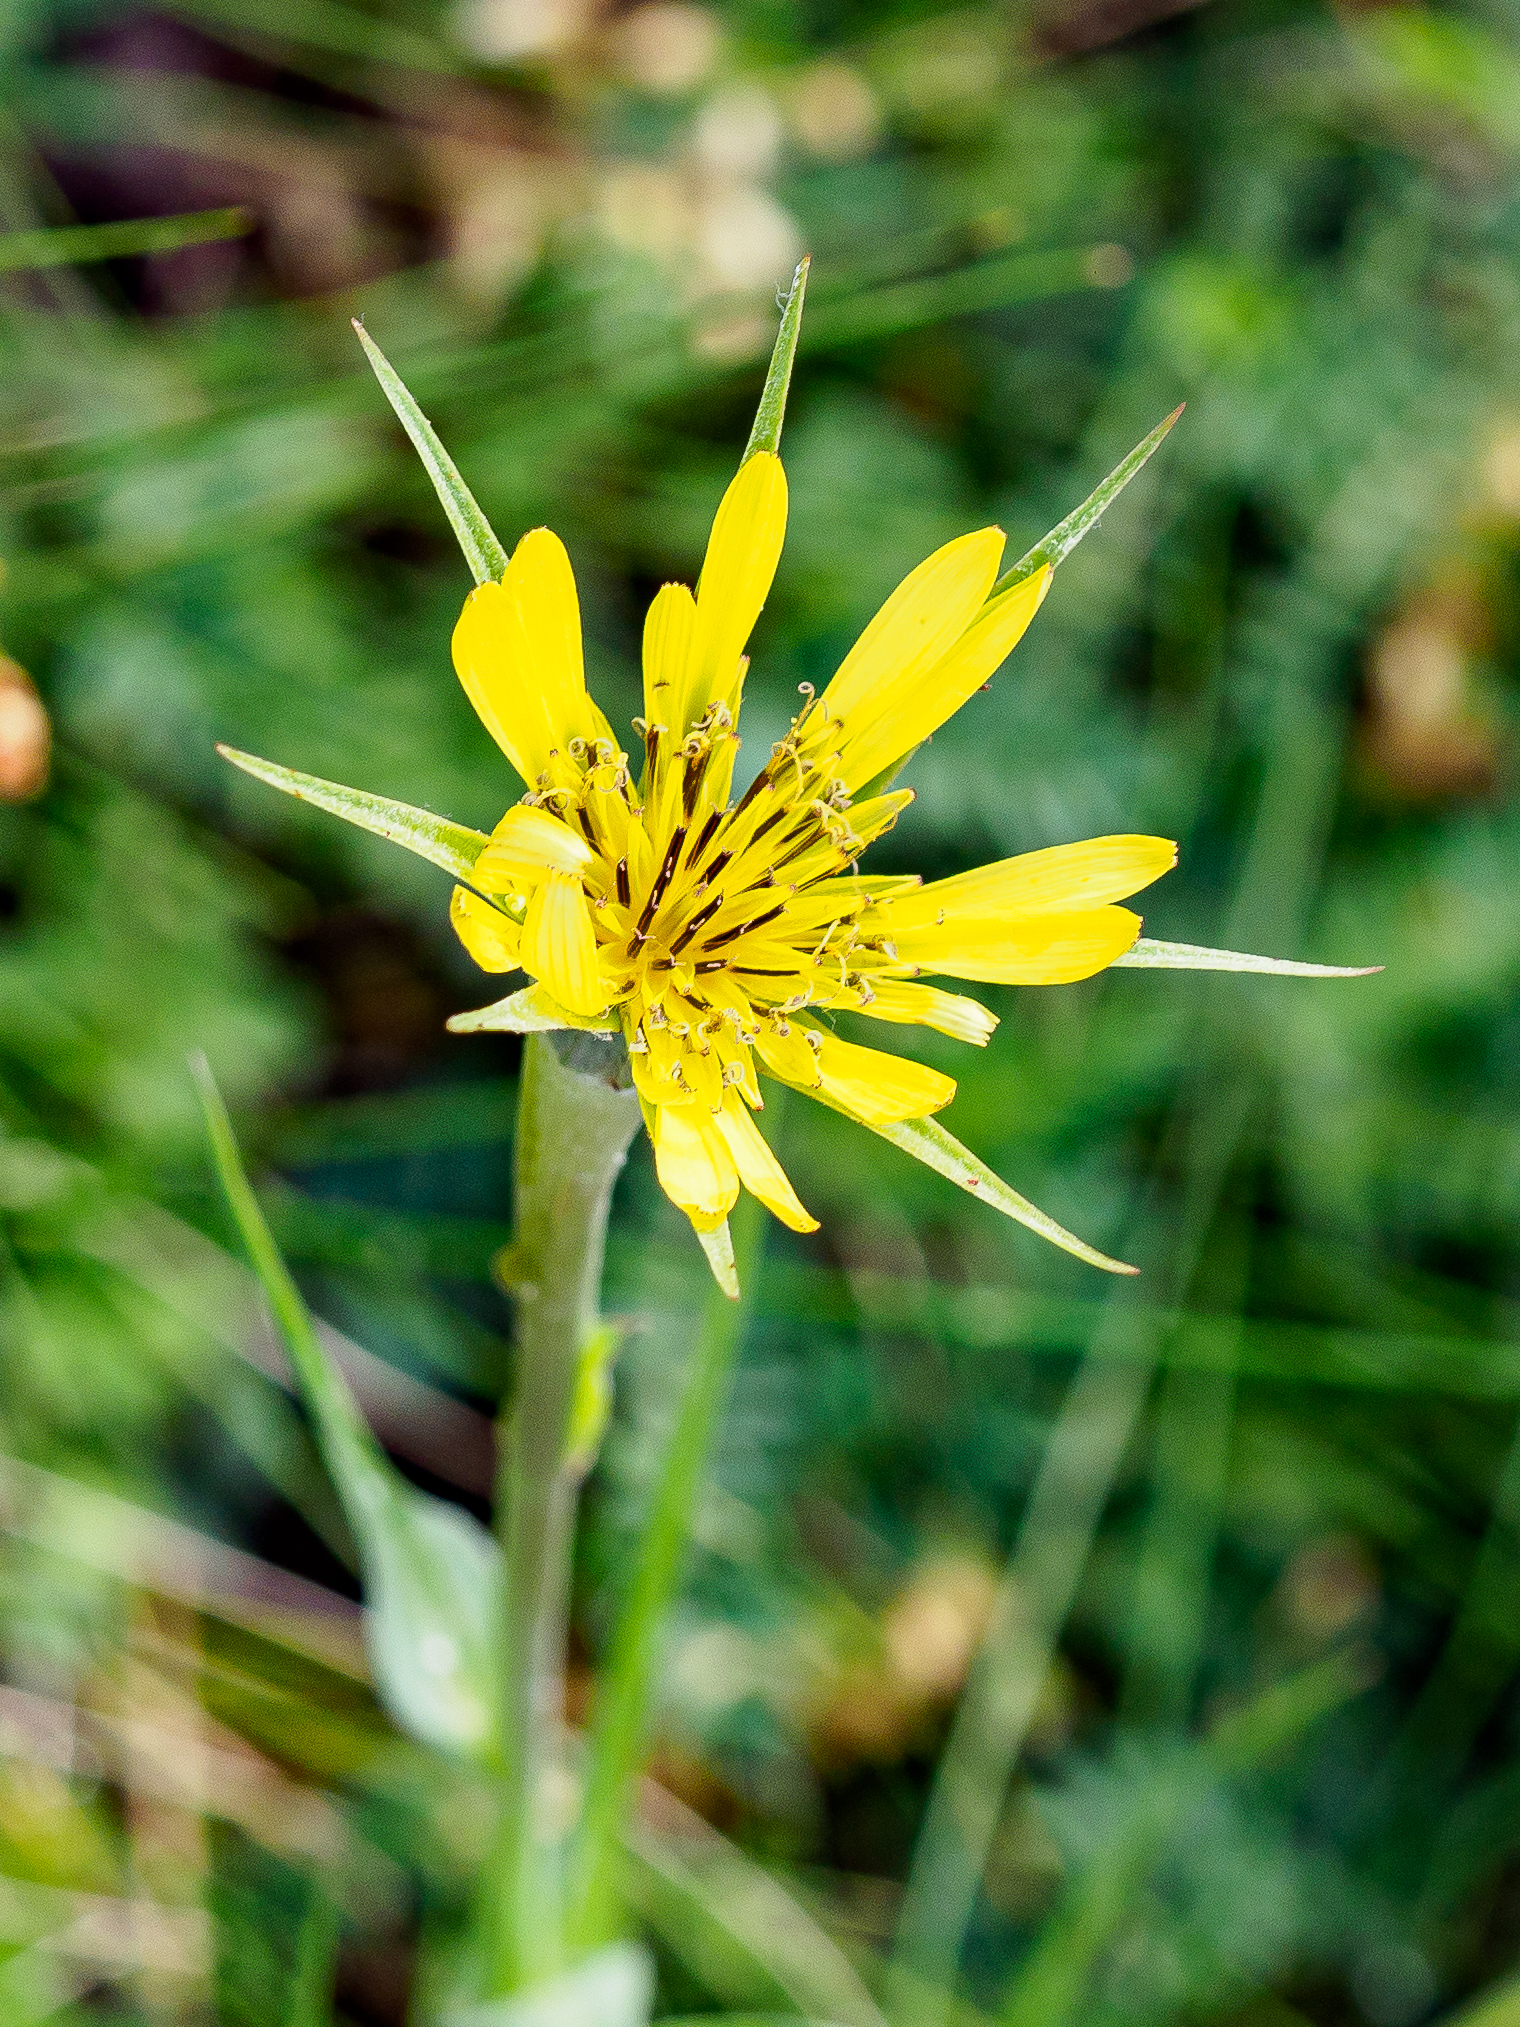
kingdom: Plantae
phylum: Tracheophyta
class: Magnoliopsida
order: Asterales
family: Asteraceae
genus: Tragopogon
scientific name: Tragopogon dubius
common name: Yellow salsify
